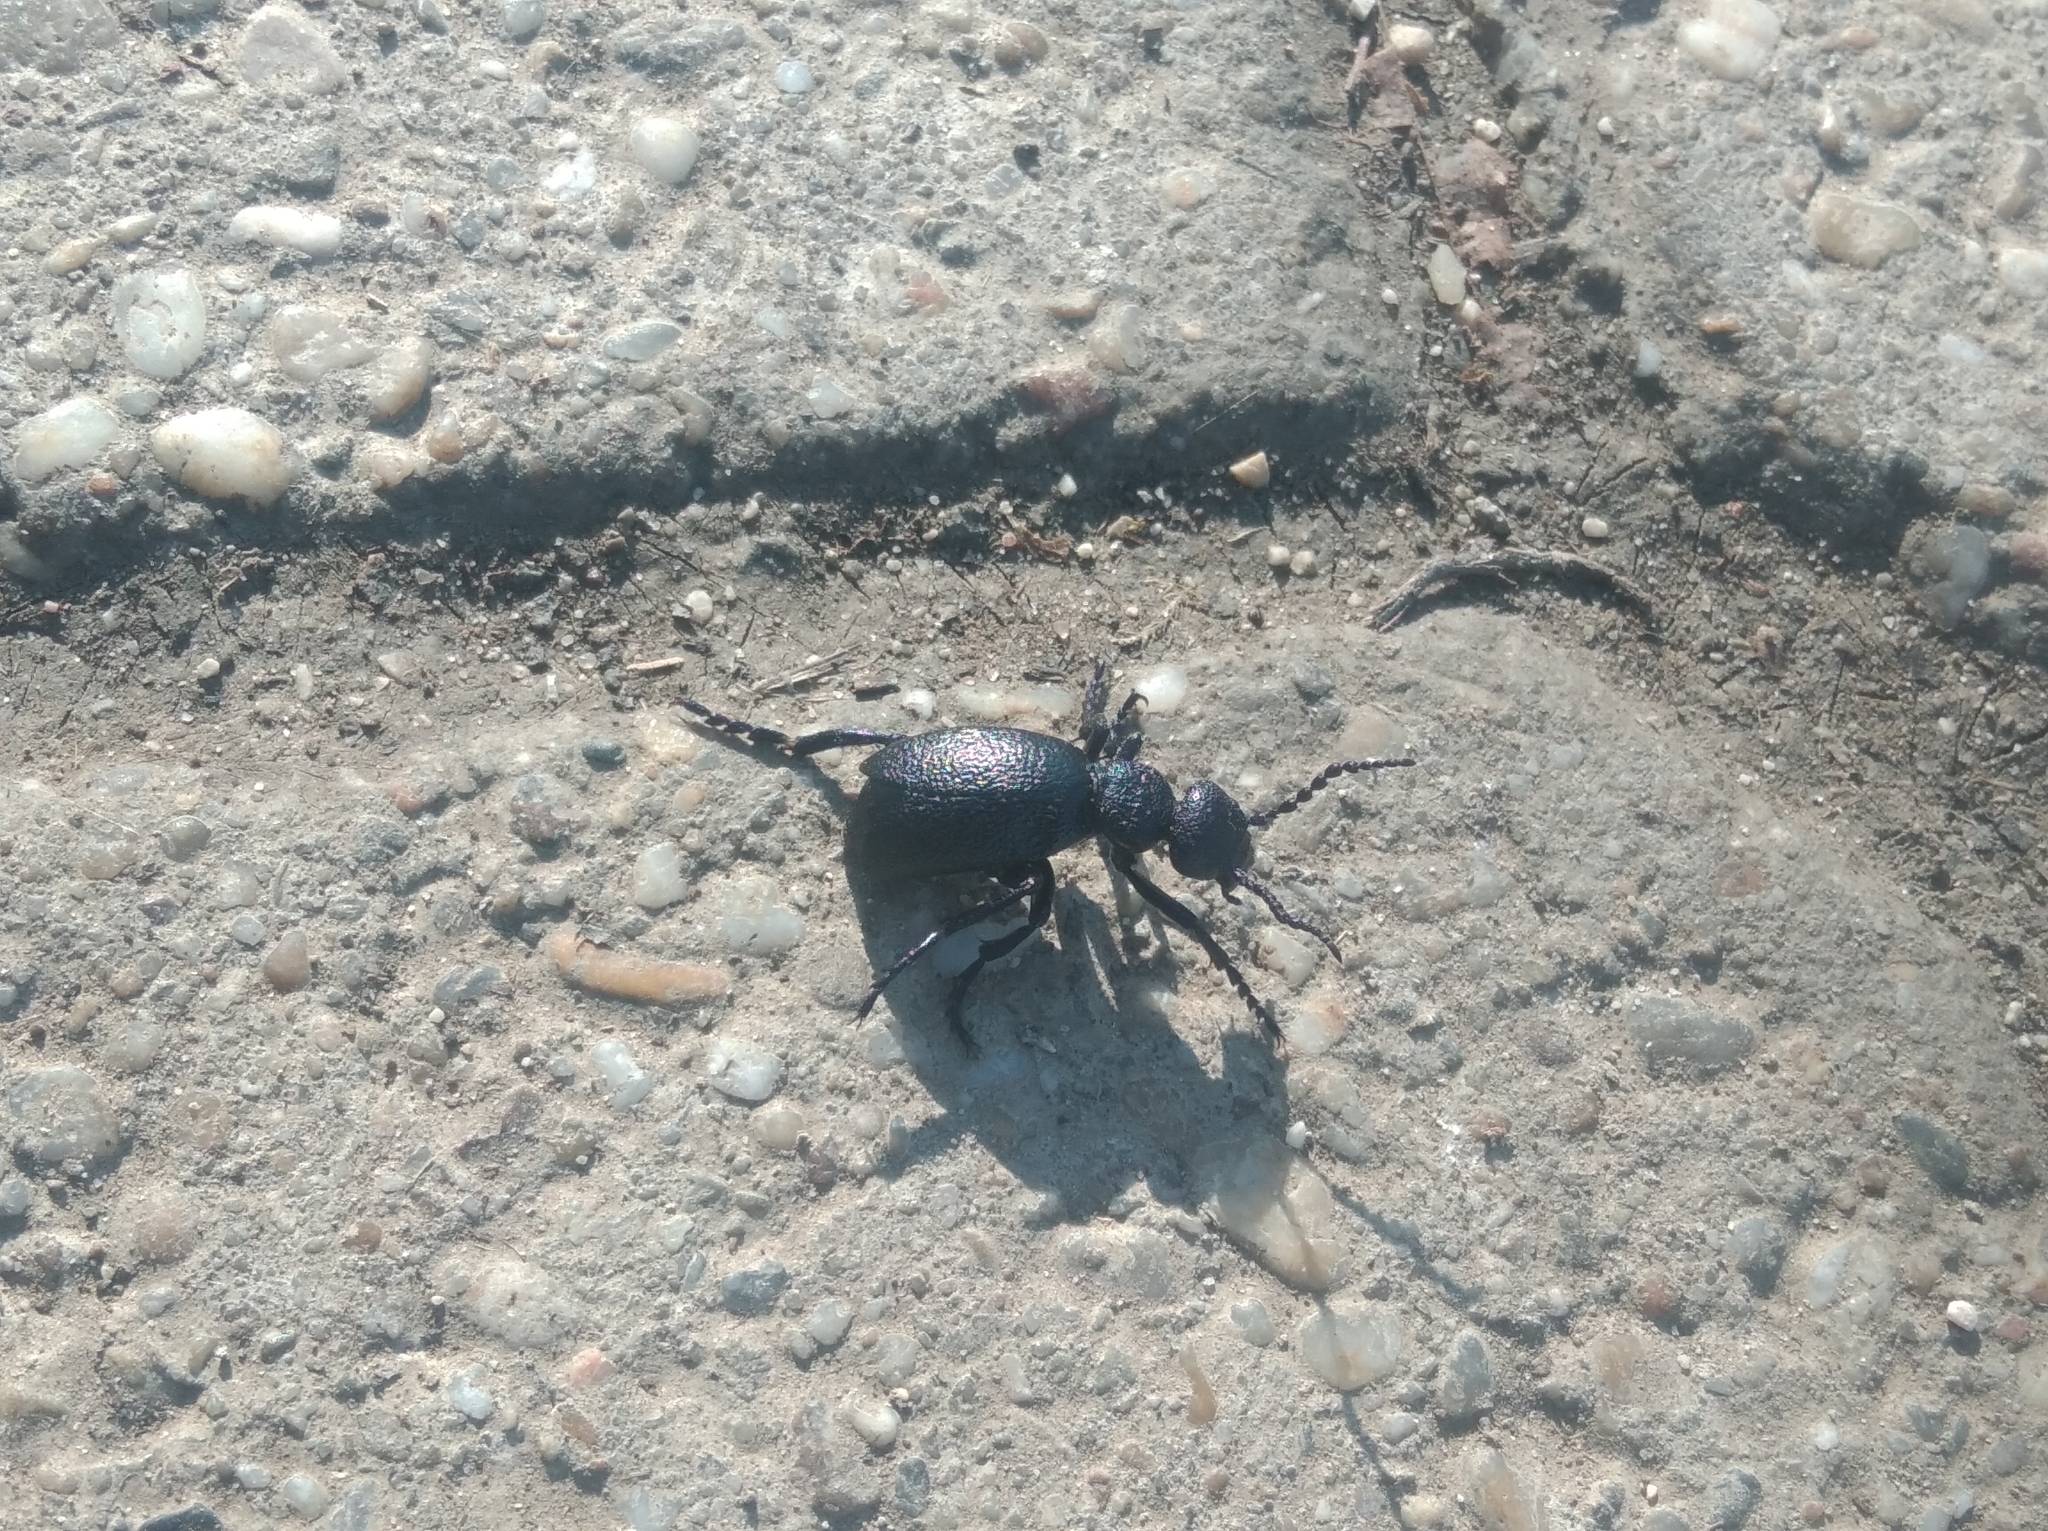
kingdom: Animalia
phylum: Arthropoda
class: Insecta
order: Coleoptera
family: Meloidae
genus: Meloe
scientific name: Meloe proscarabaeus
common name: Black oil-beetle
